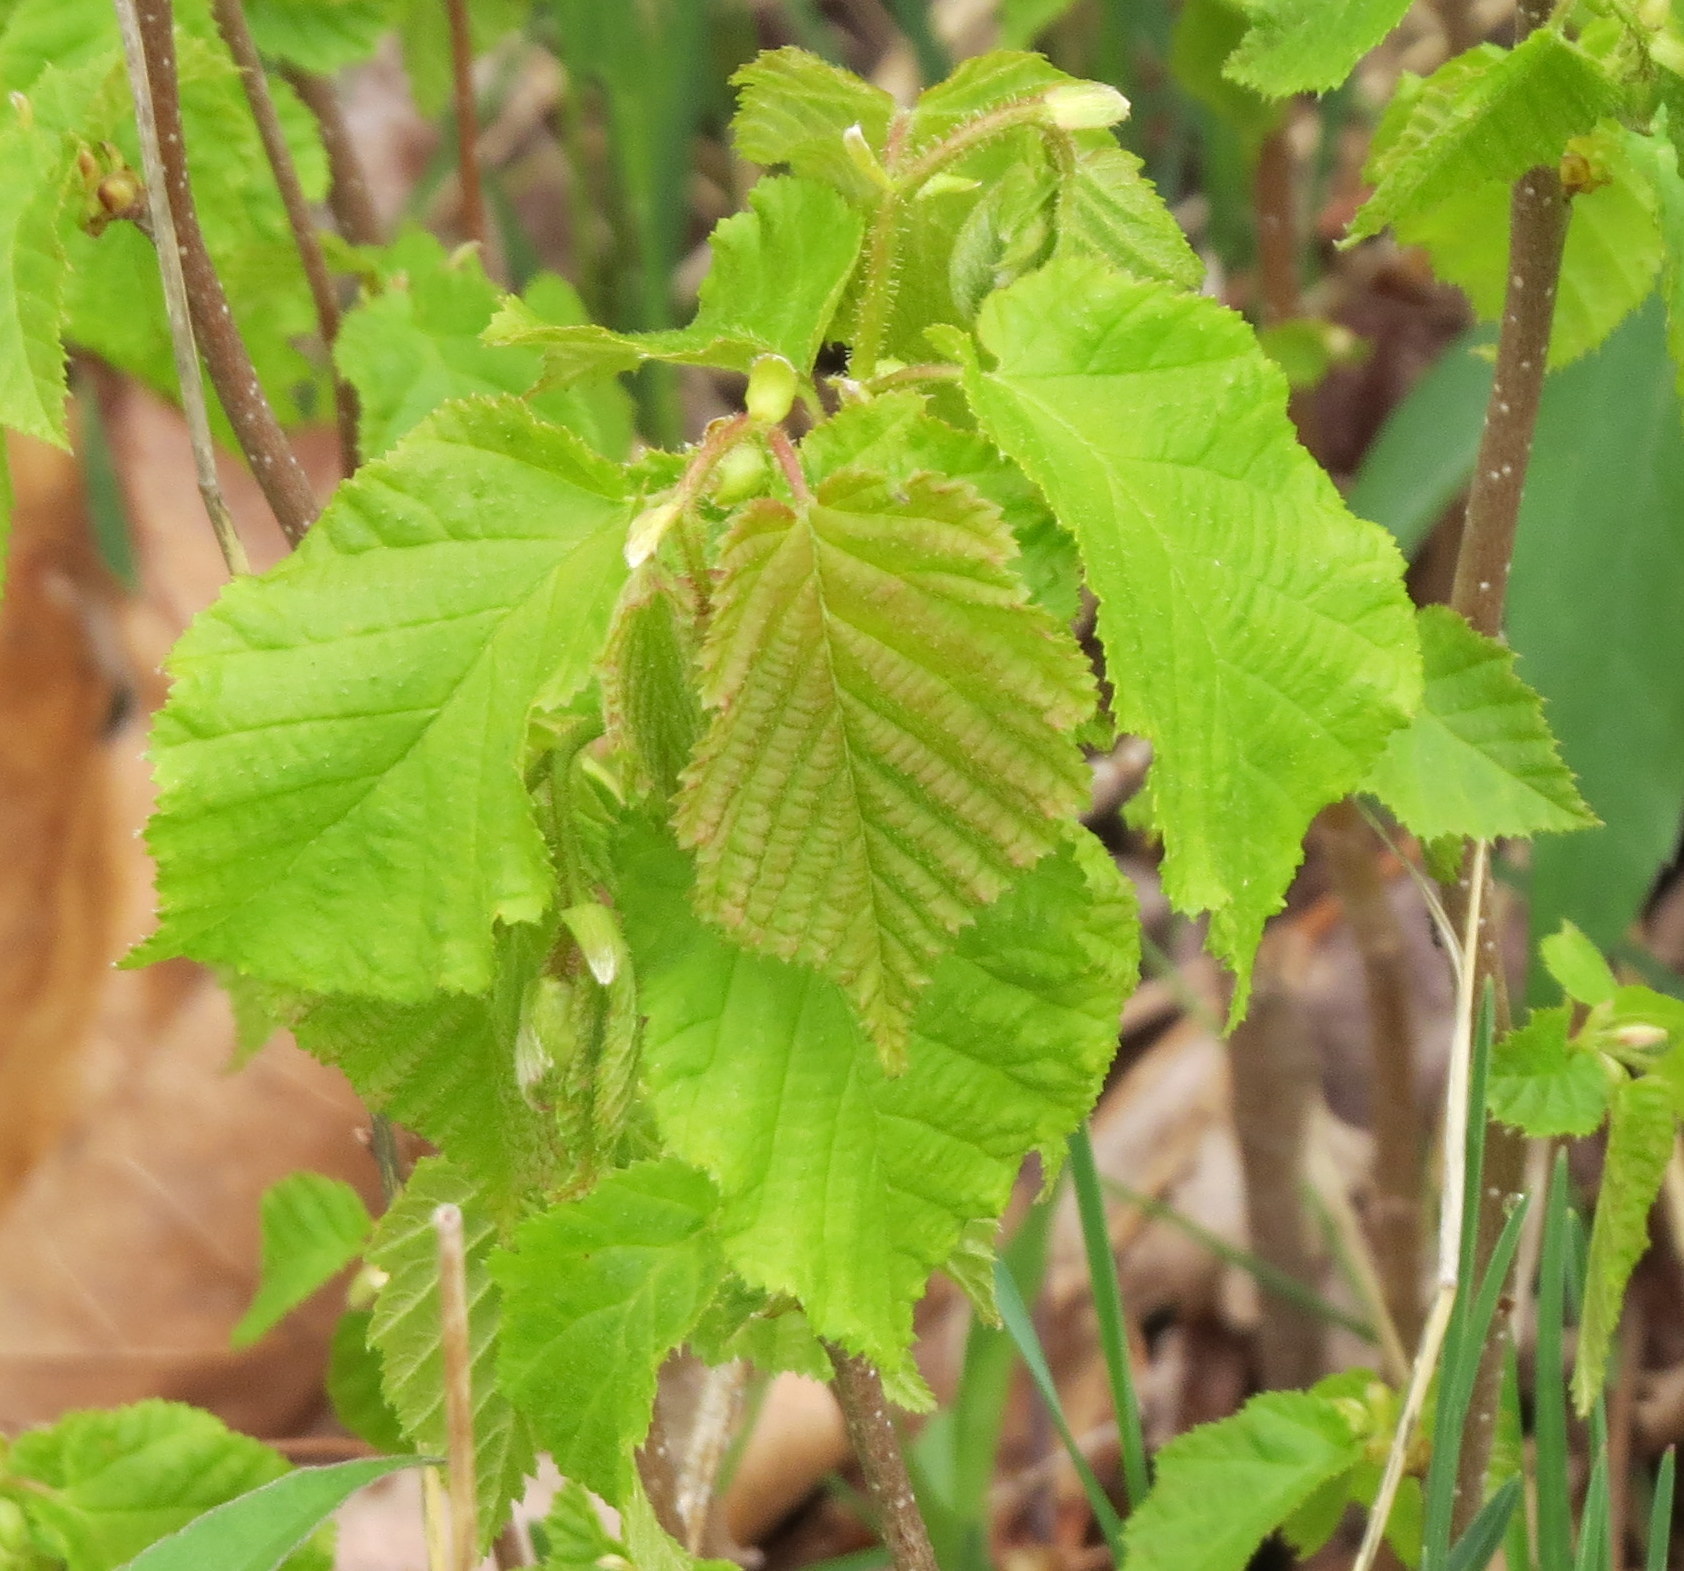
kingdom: Plantae
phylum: Tracheophyta
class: Magnoliopsida
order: Fagales
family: Betulaceae
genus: Corylus
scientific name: Corylus americana
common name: American hazel
